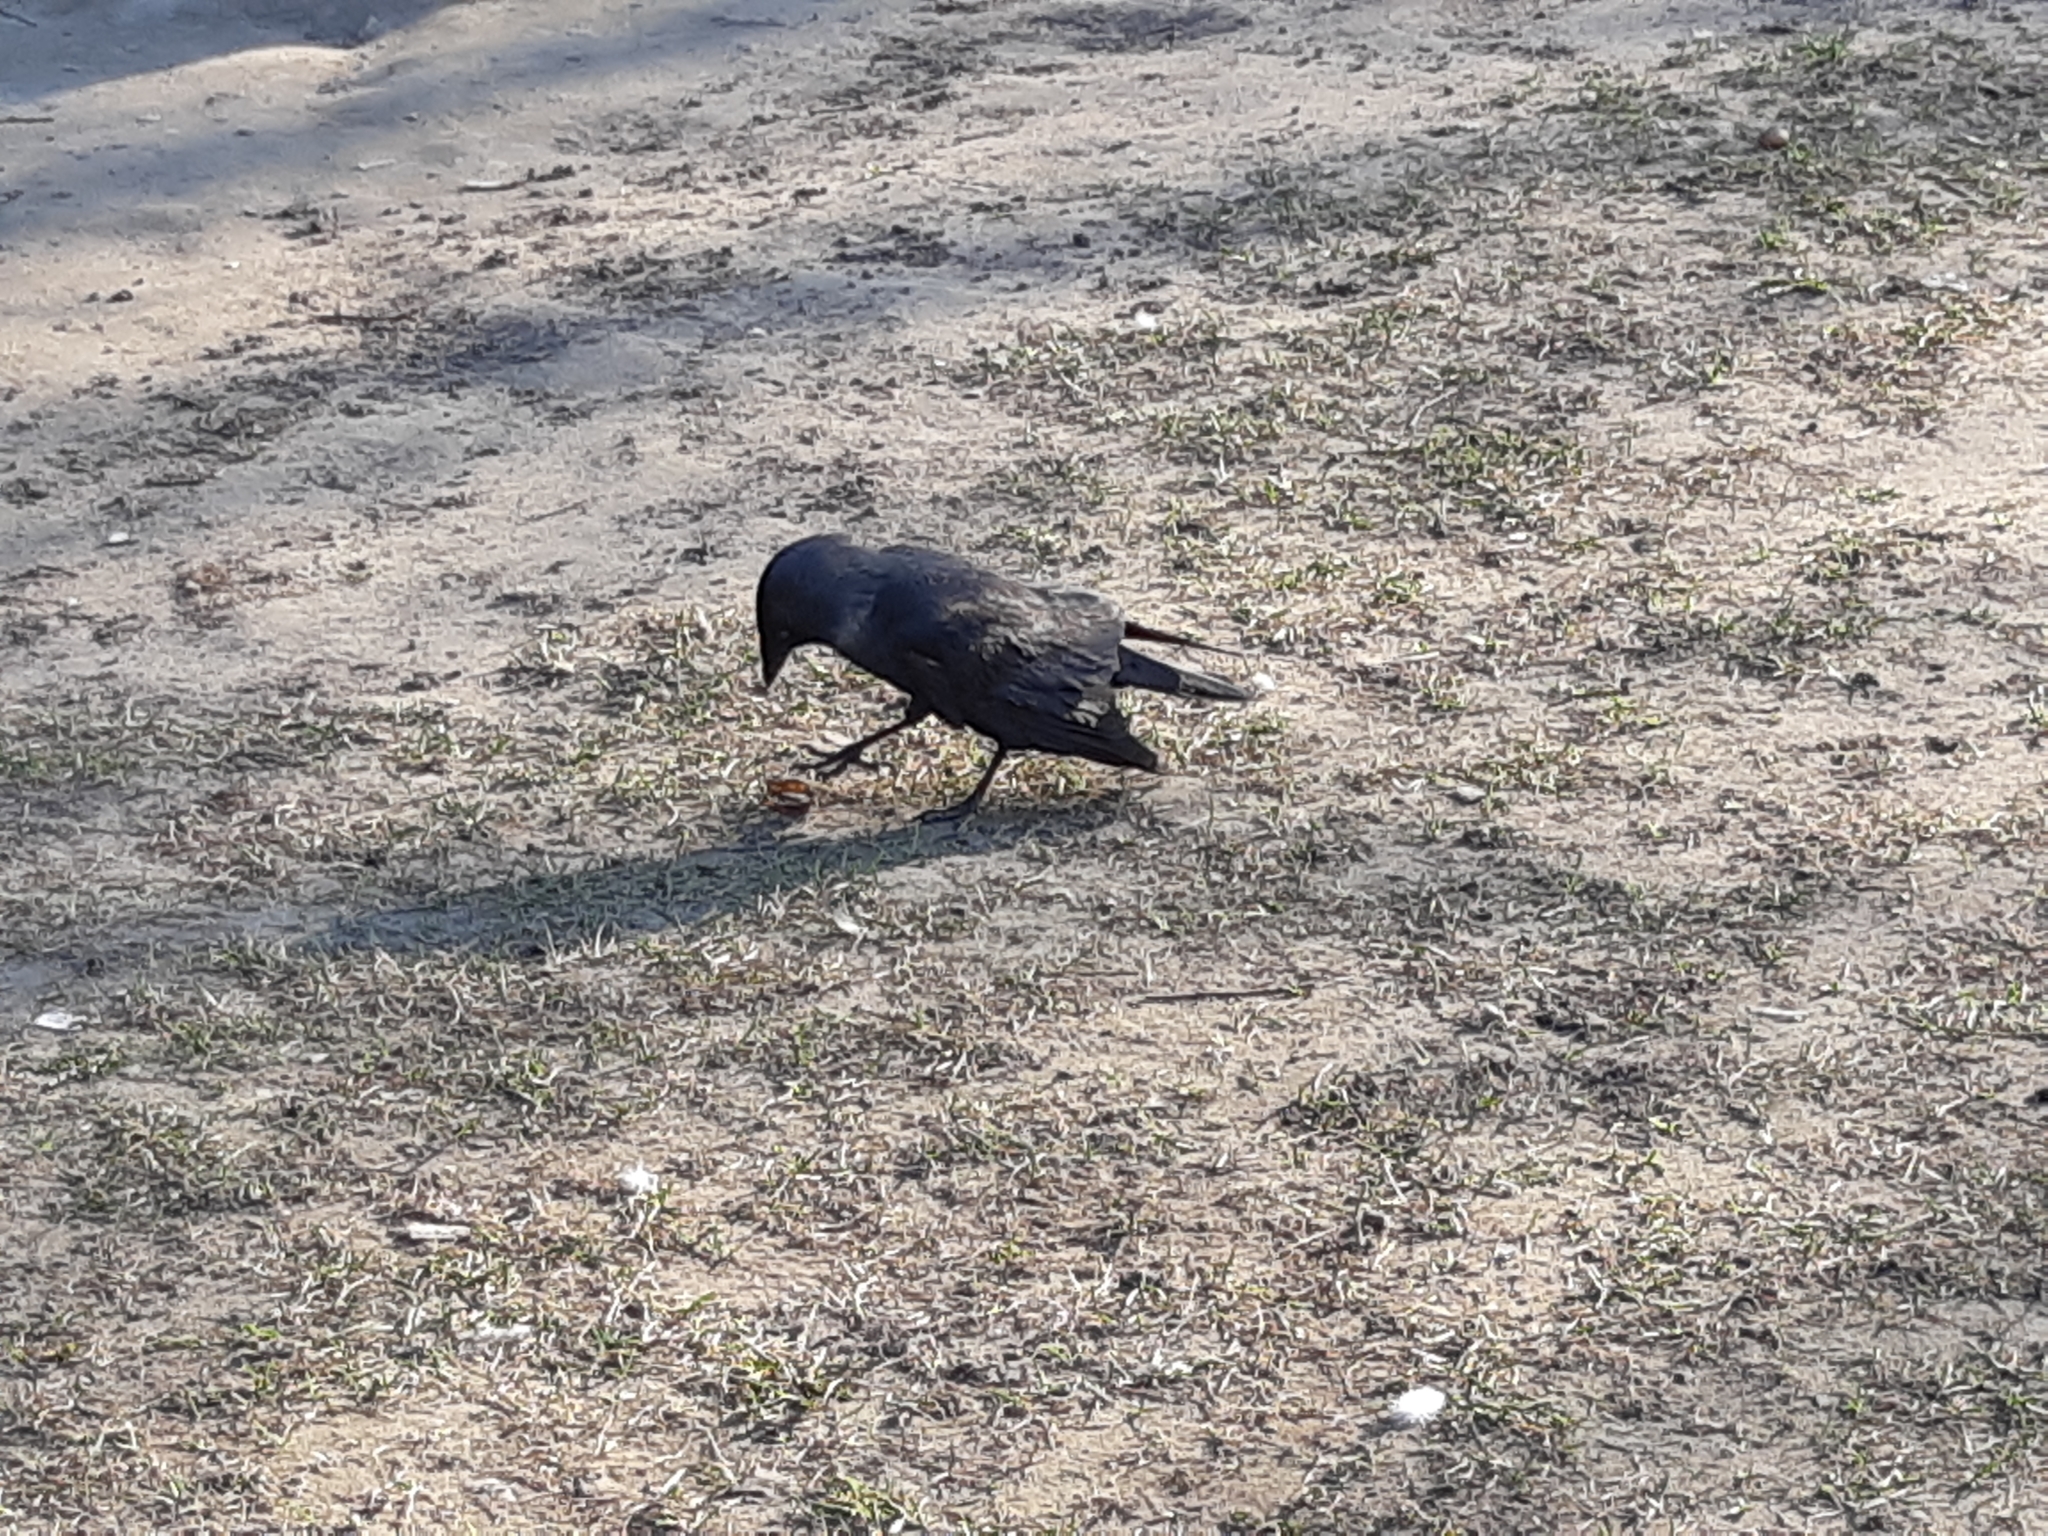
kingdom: Animalia
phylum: Chordata
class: Aves
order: Passeriformes
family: Corvidae
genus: Coloeus
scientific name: Coloeus monedula
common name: Western jackdaw
